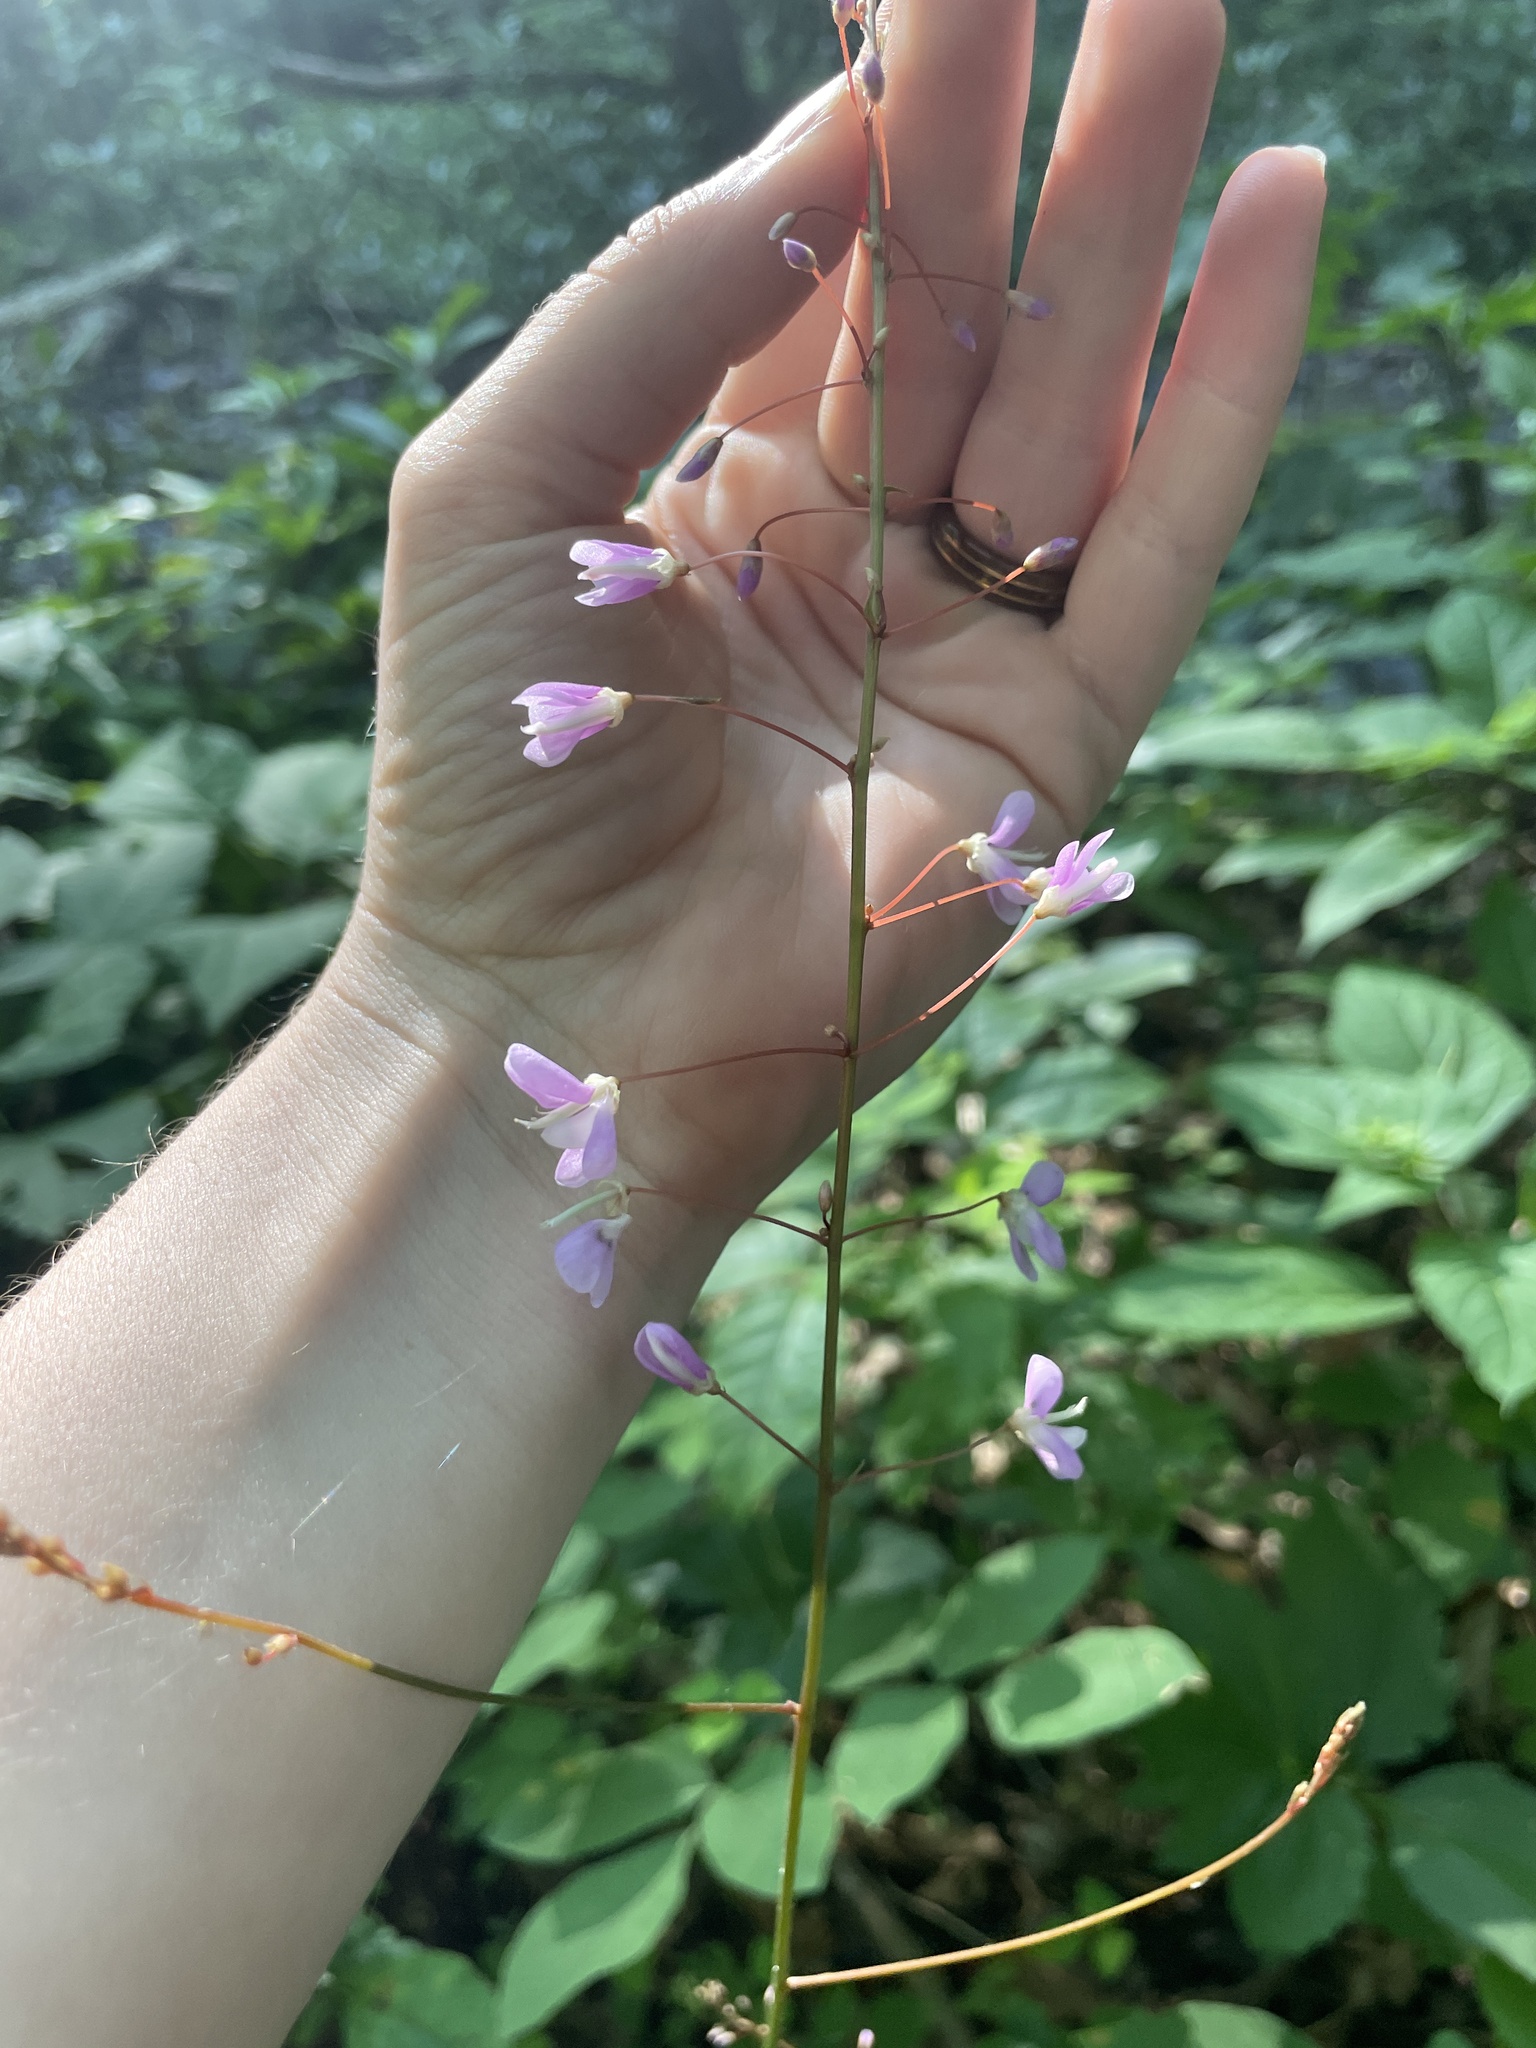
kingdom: Plantae
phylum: Tracheophyta
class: Magnoliopsida
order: Fabales
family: Fabaceae
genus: Hylodesmum
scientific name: Hylodesmum nudiflorum
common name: Bare-stemmed tick-trefoil
